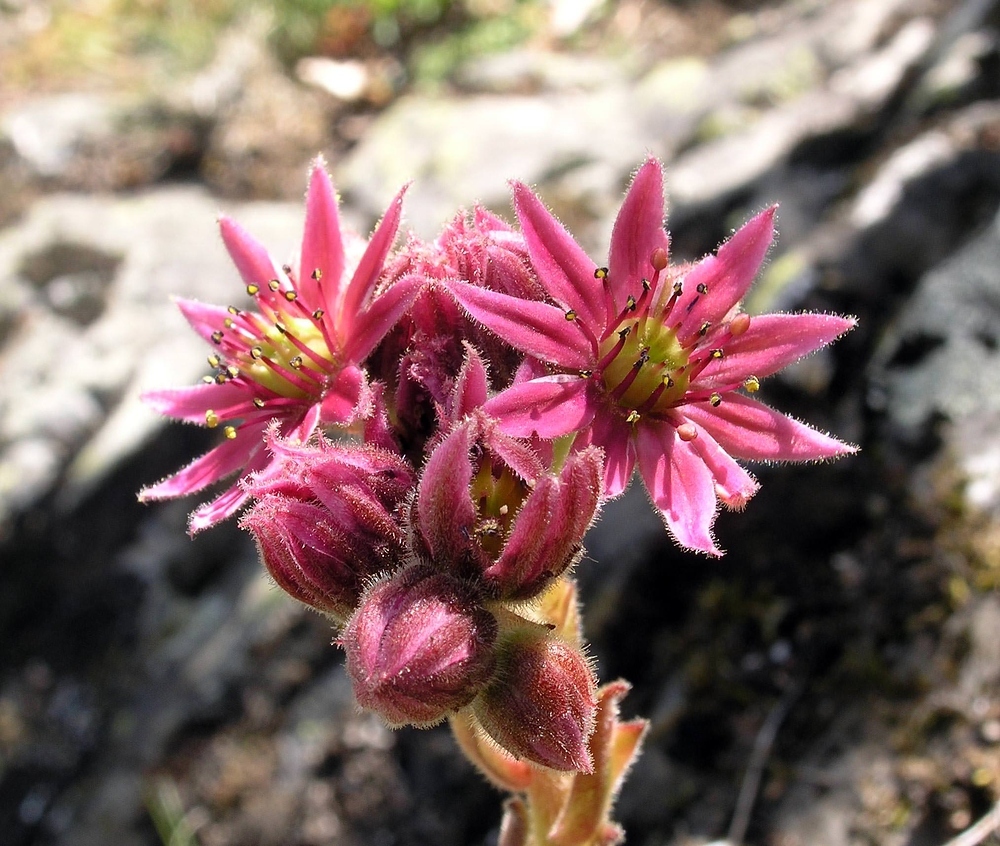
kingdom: Plantae
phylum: Tracheophyta
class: Magnoliopsida
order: Saxifragales
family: Crassulaceae
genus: Sempervivum
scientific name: Sempervivum arachnoideum
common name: Cobweb house-leek
